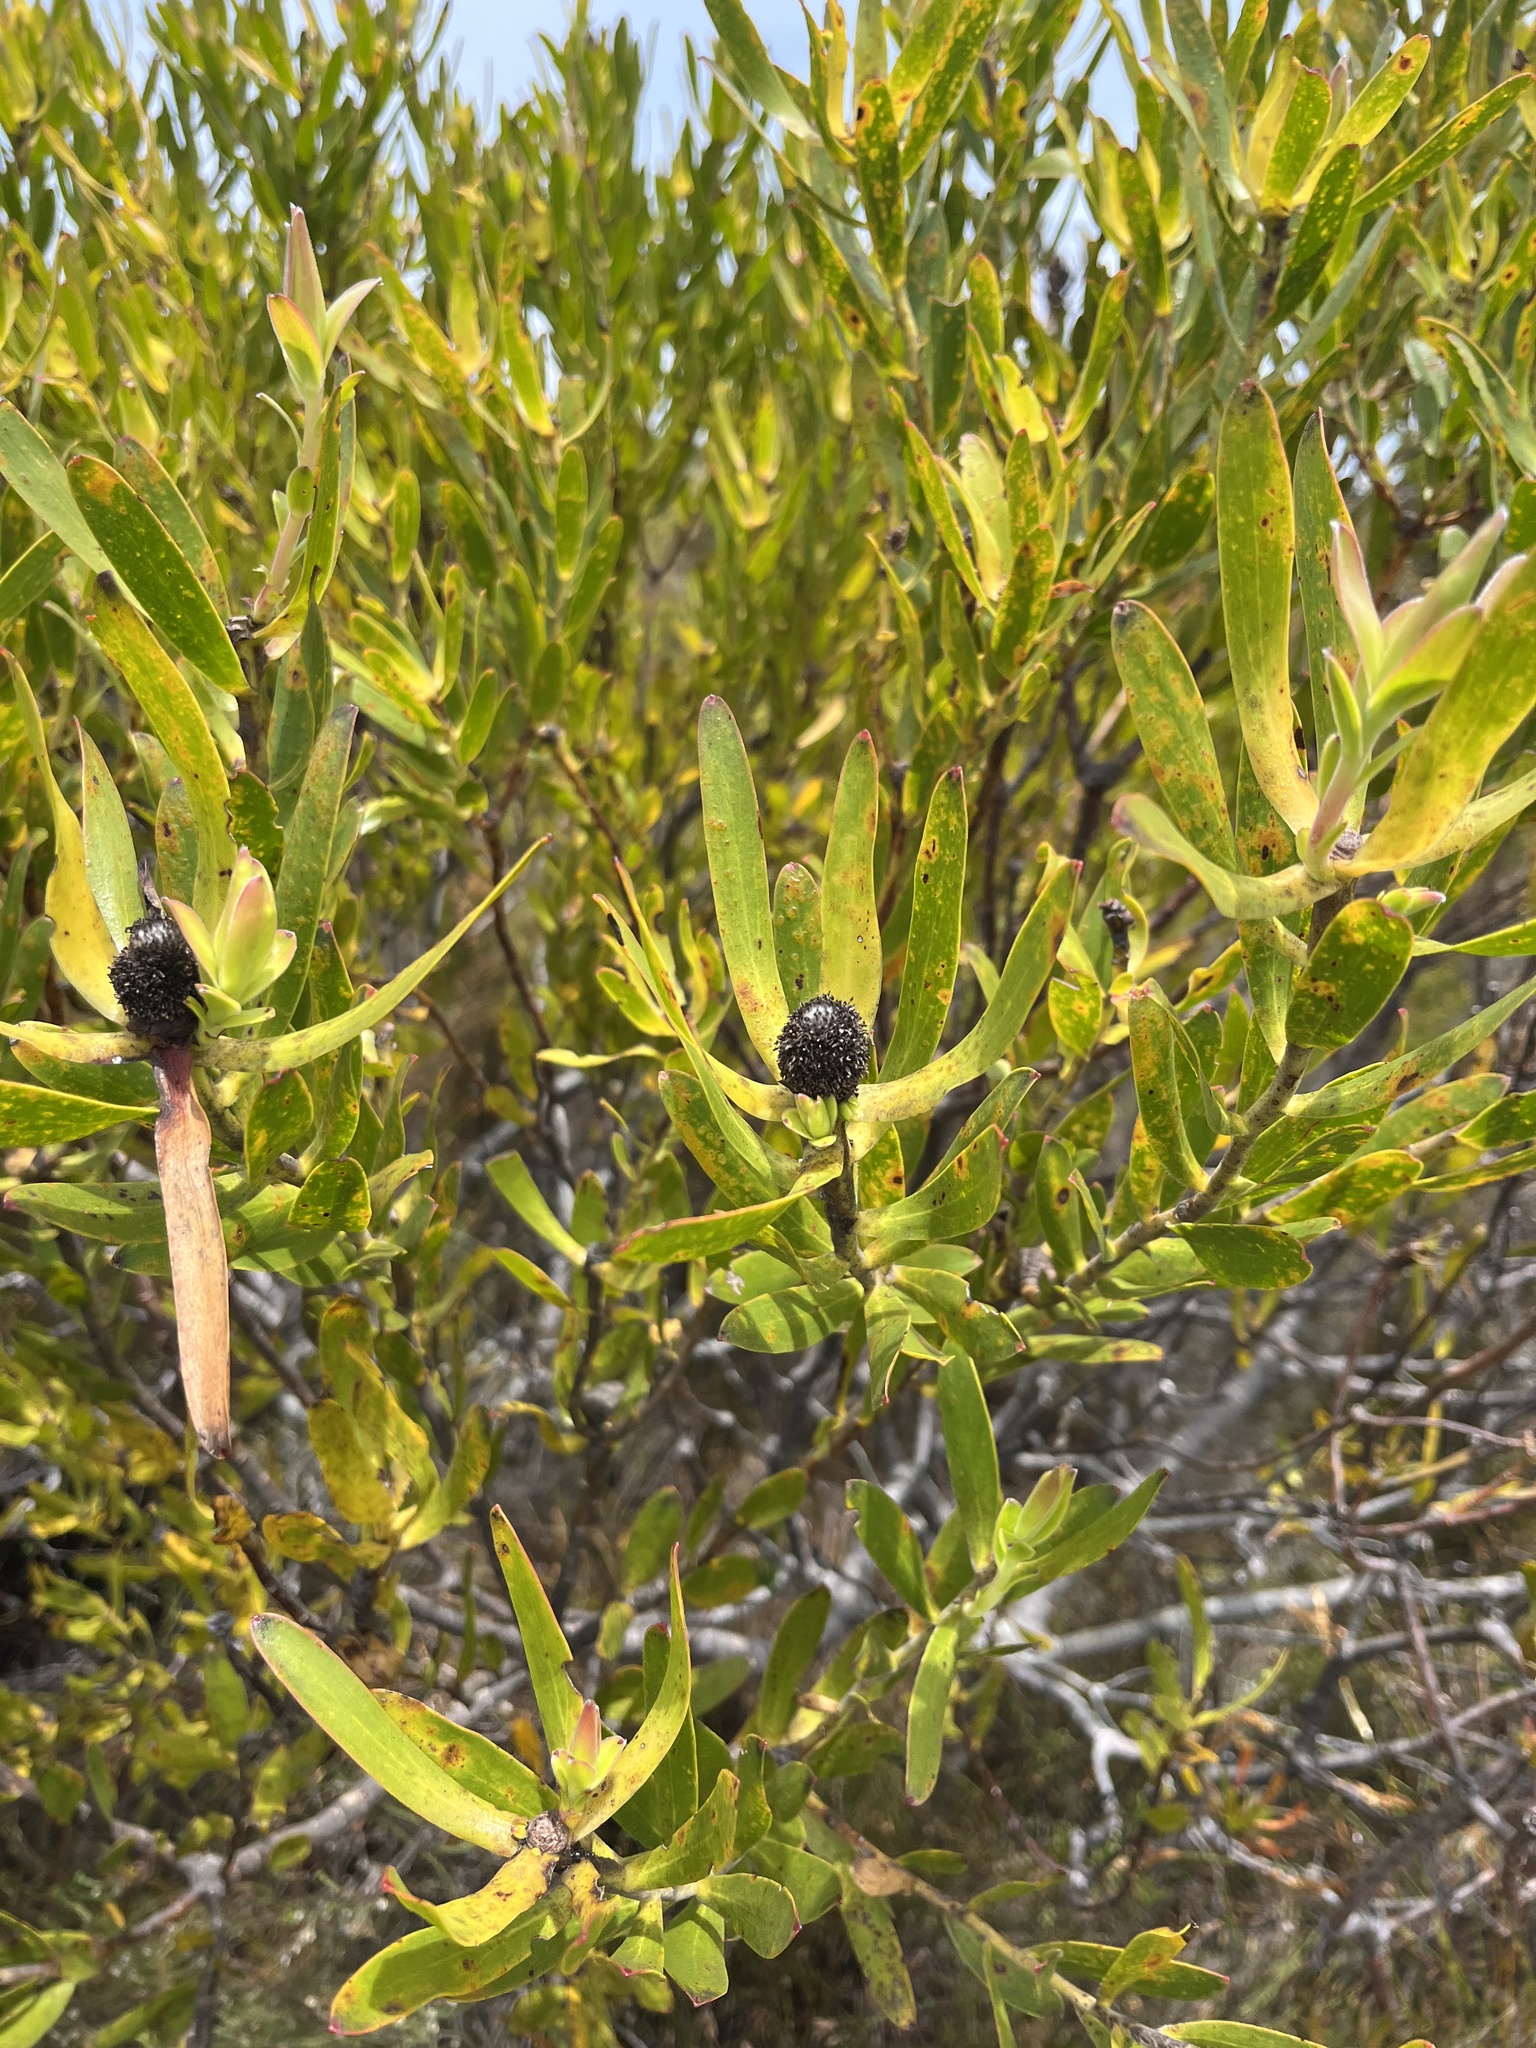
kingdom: Plantae
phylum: Tracheophyta
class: Magnoliopsida
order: Proteales
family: Proteaceae
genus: Leucadendron
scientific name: Leucadendron laureolum
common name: Golden sunshinebush
